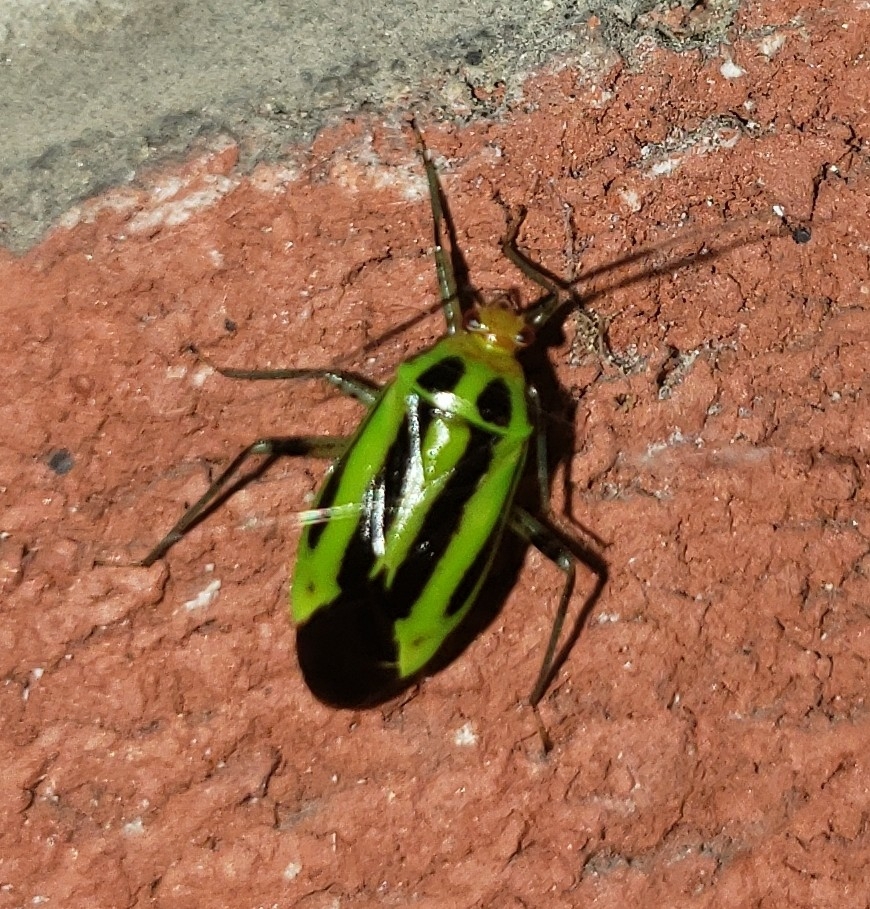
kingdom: Animalia
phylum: Arthropoda
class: Insecta
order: Hemiptera
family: Miridae
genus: Poecilocapsus
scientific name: Poecilocapsus lineatus
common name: Four-lined plant bug
